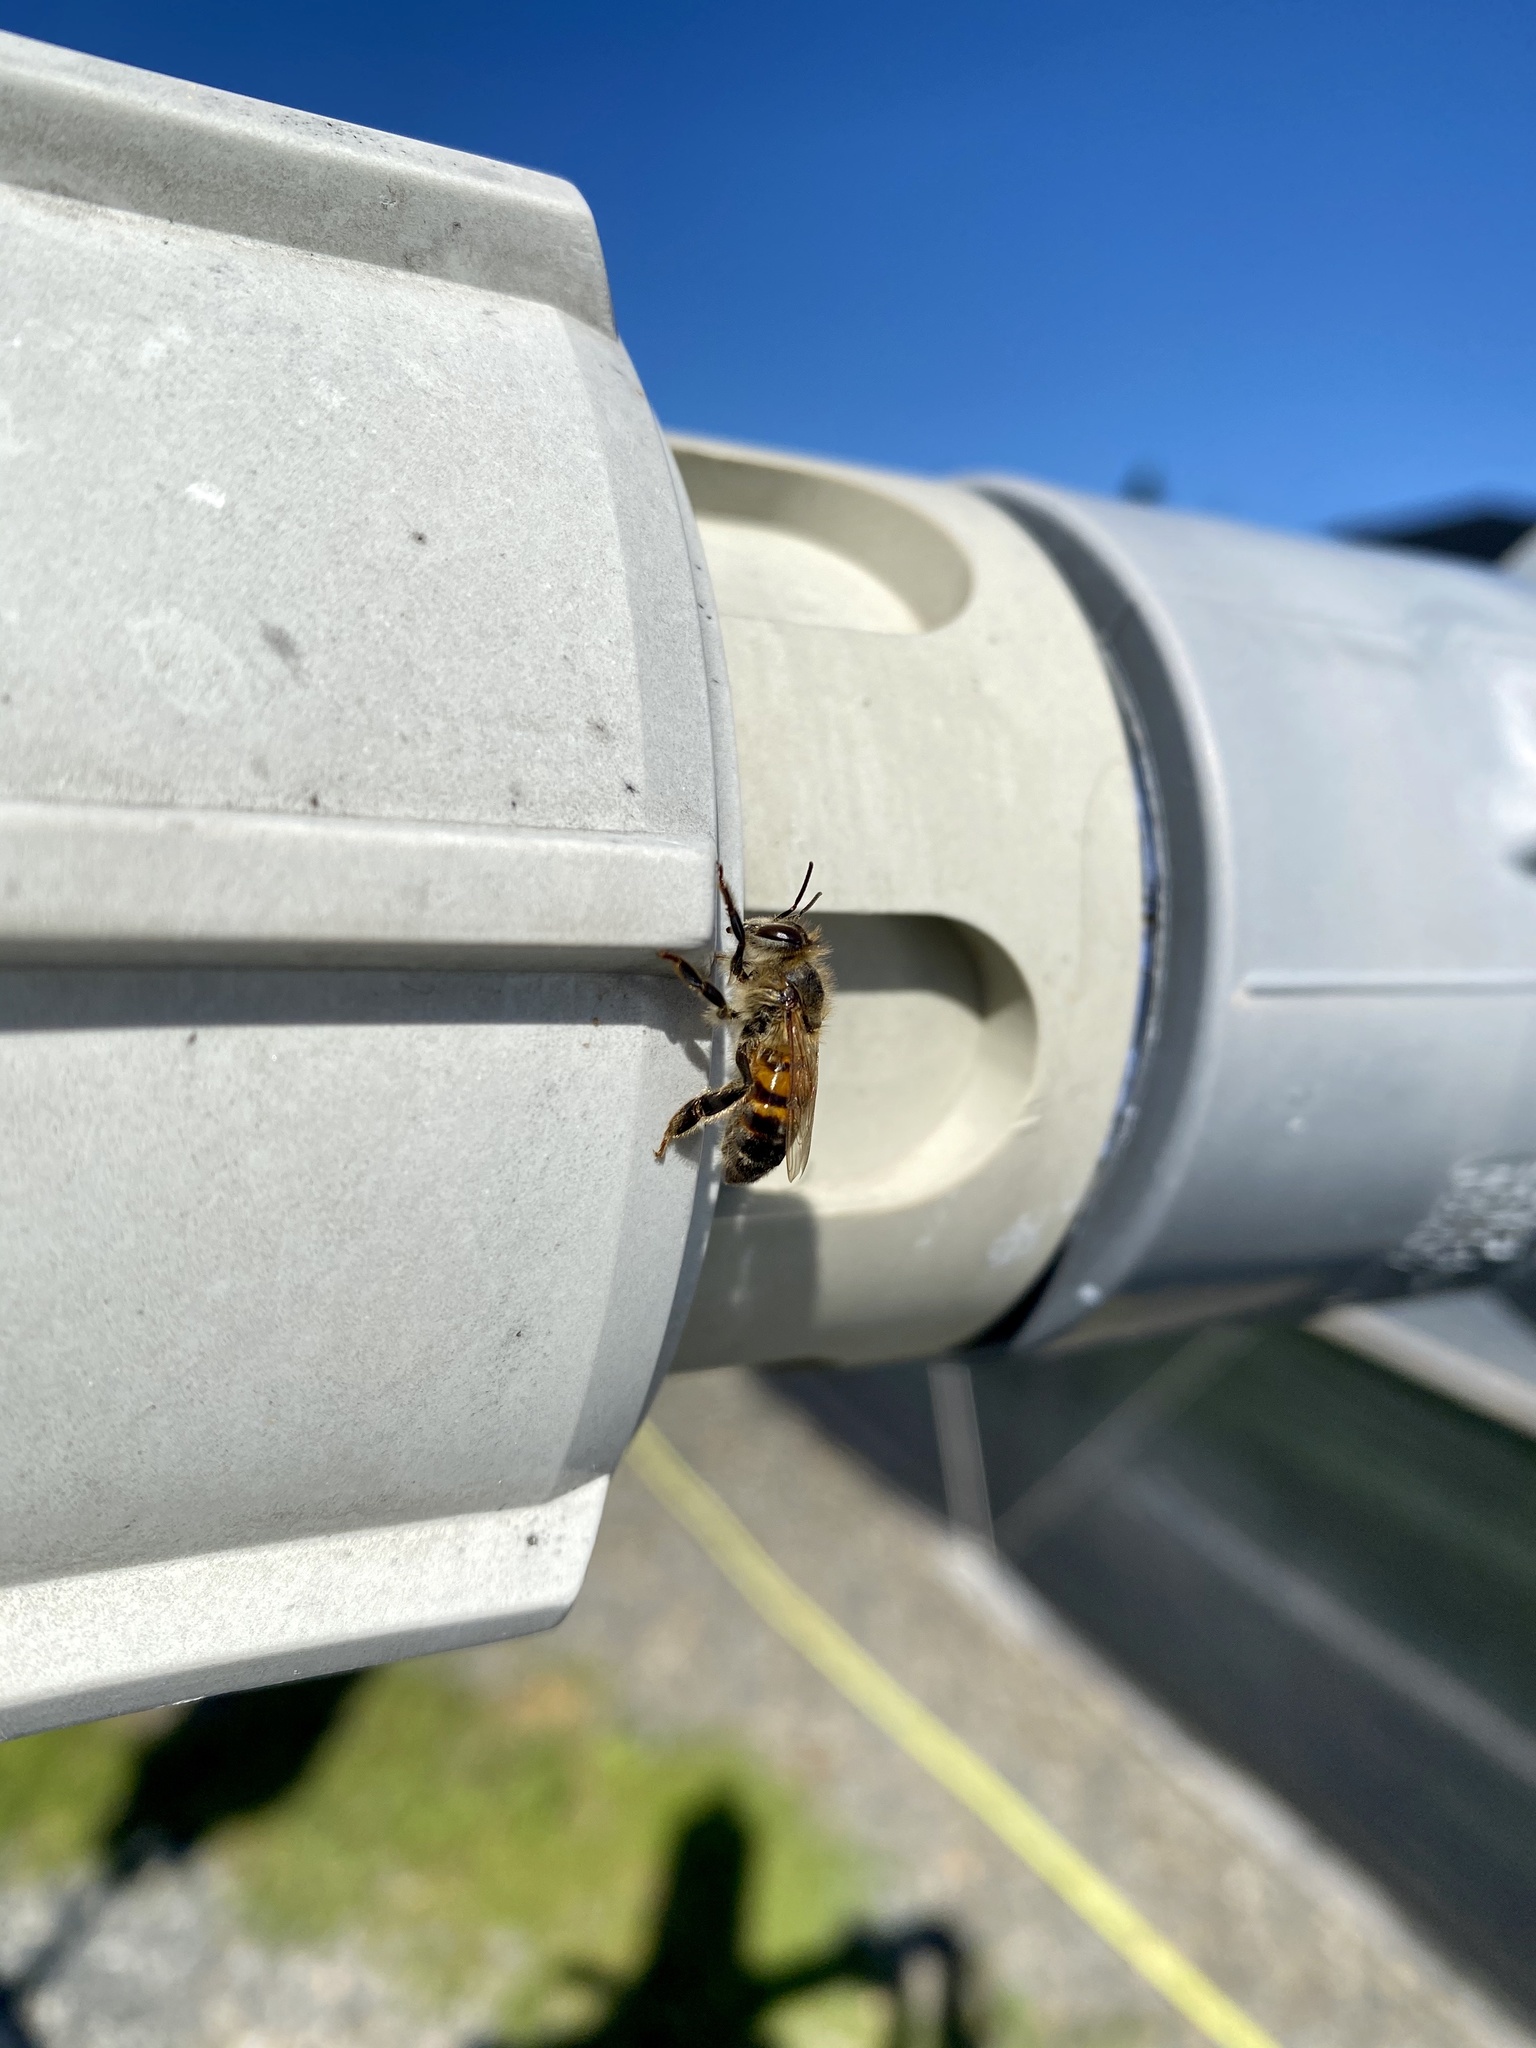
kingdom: Animalia
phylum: Arthropoda
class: Insecta
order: Hymenoptera
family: Apidae
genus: Apis
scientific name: Apis mellifera
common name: Honey bee
